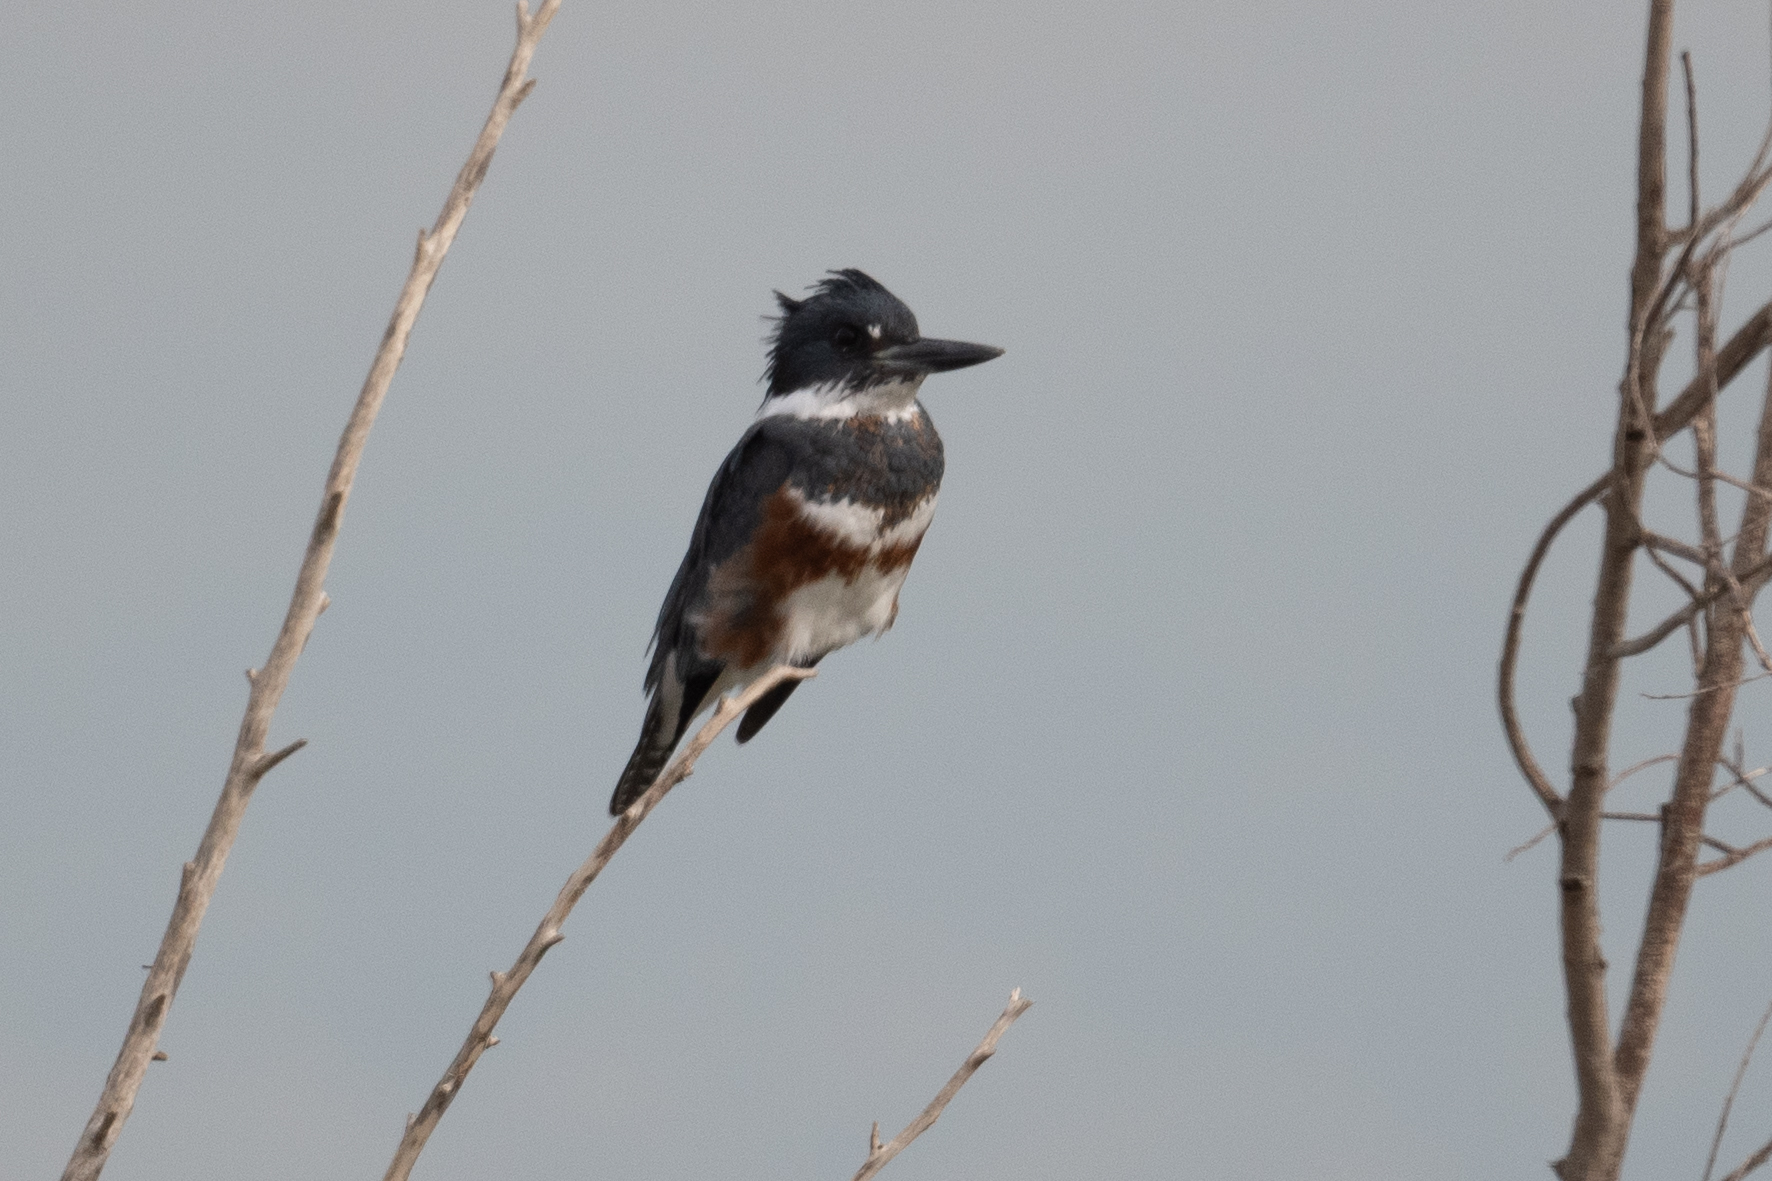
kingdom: Animalia
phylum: Chordata
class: Aves
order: Coraciiformes
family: Alcedinidae
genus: Megaceryle
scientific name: Megaceryle alcyon
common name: Belted kingfisher
